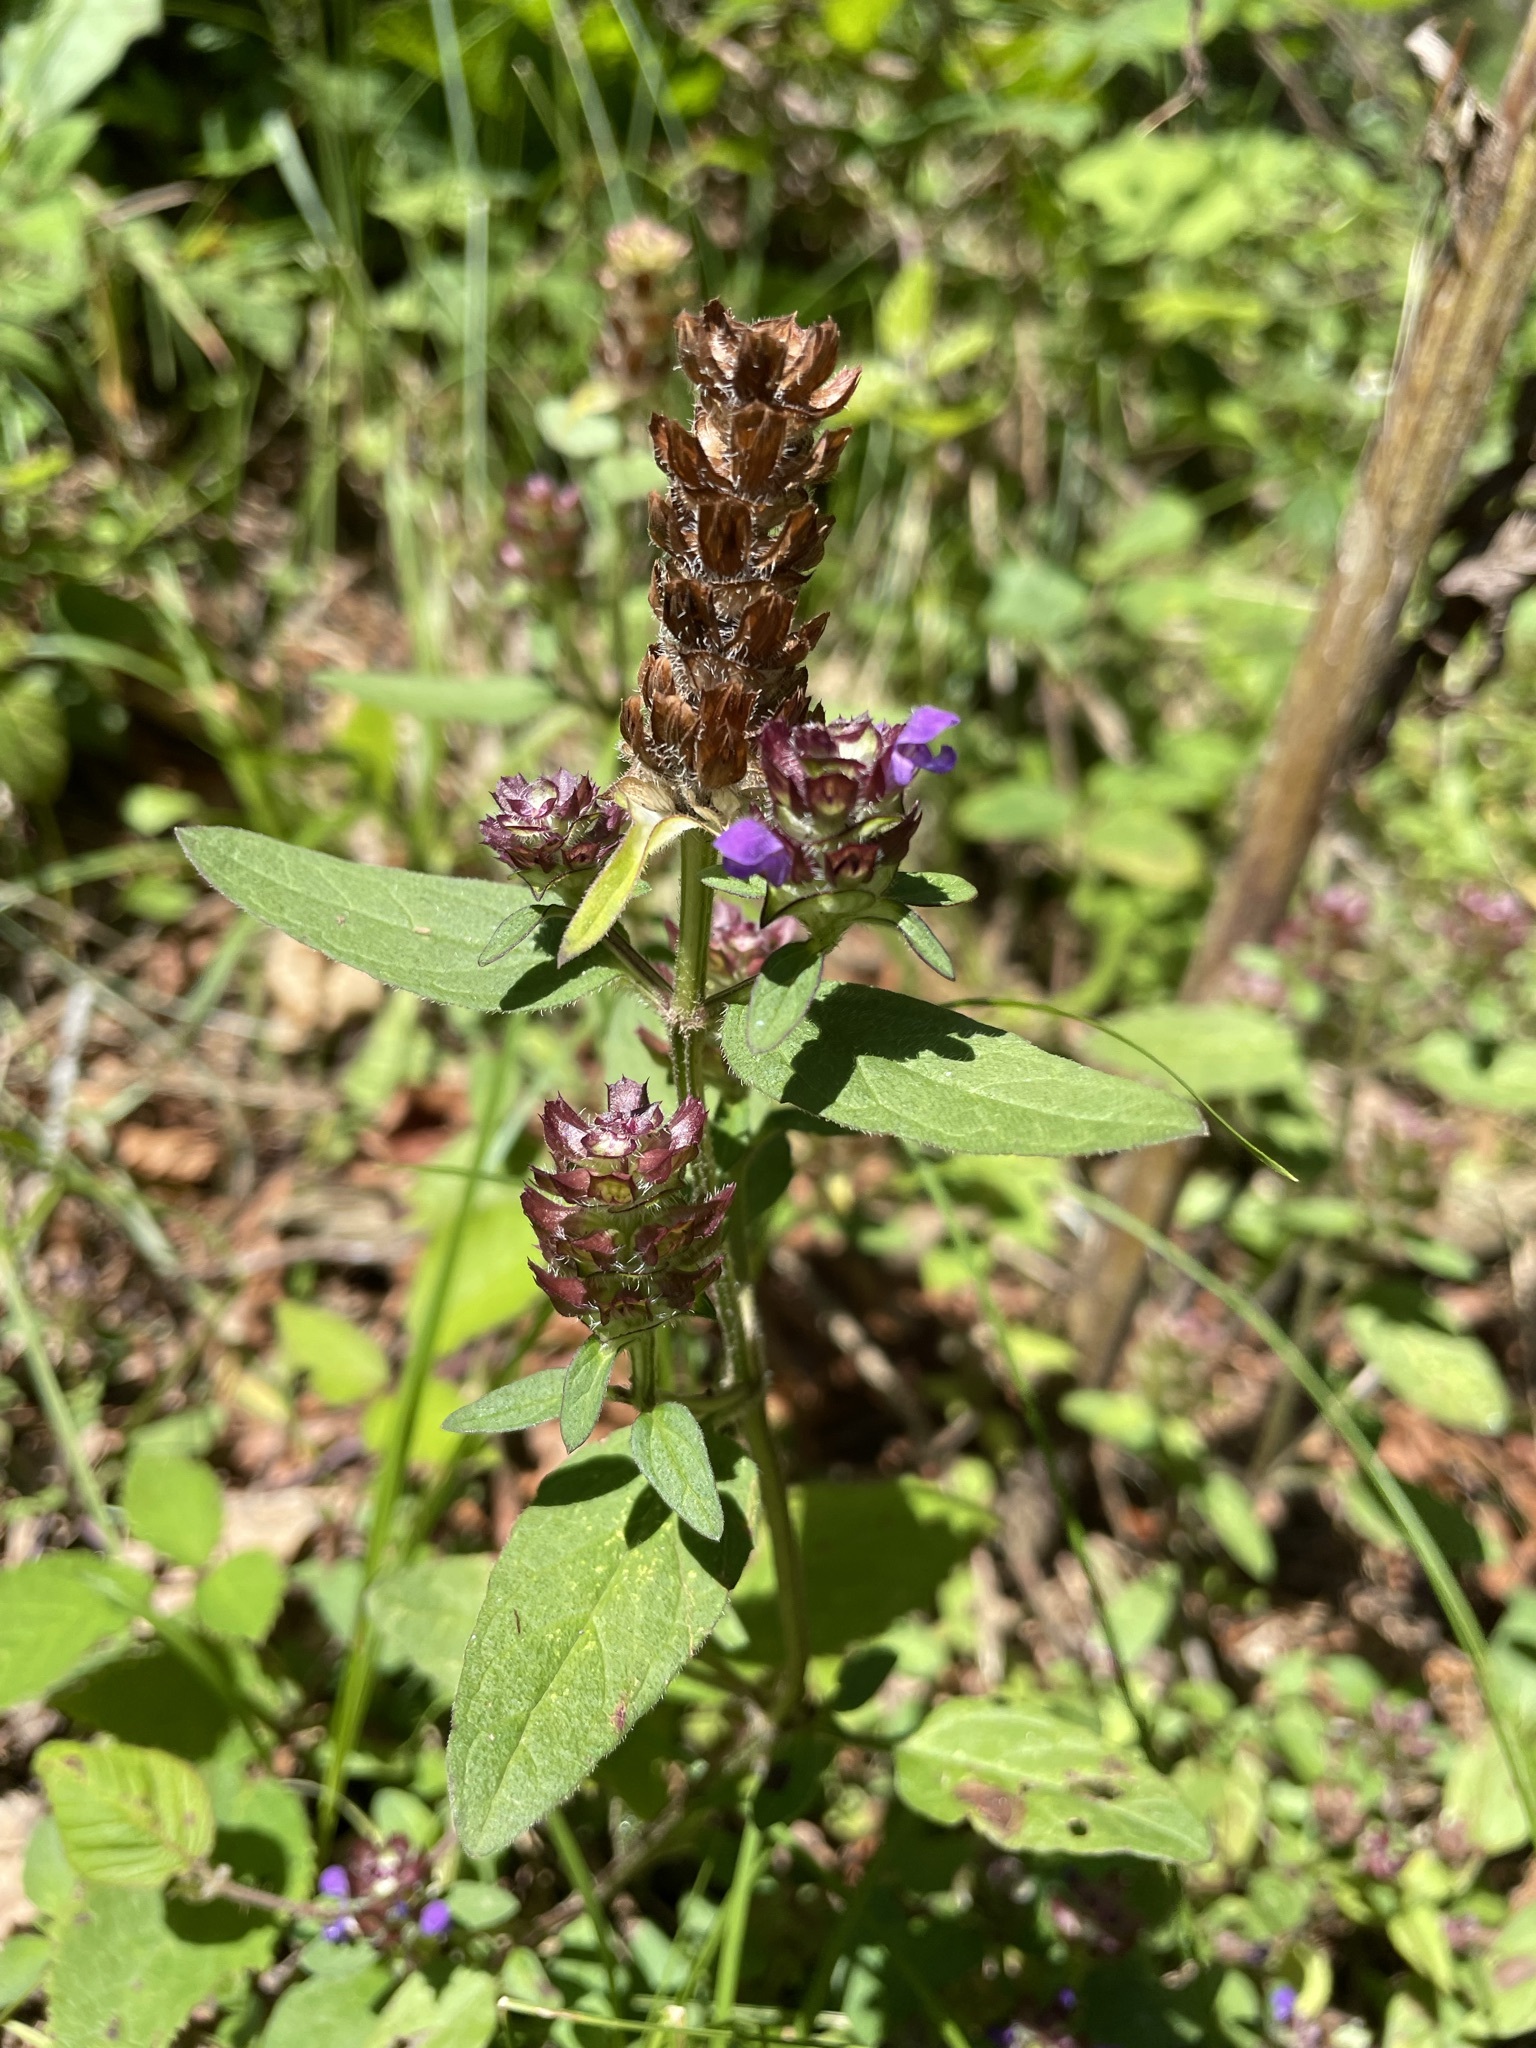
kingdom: Plantae
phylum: Tracheophyta
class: Magnoliopsida
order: Lamiales
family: Lamiaceae
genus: Prunella
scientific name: Prunella vulgaris
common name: Heal-all
